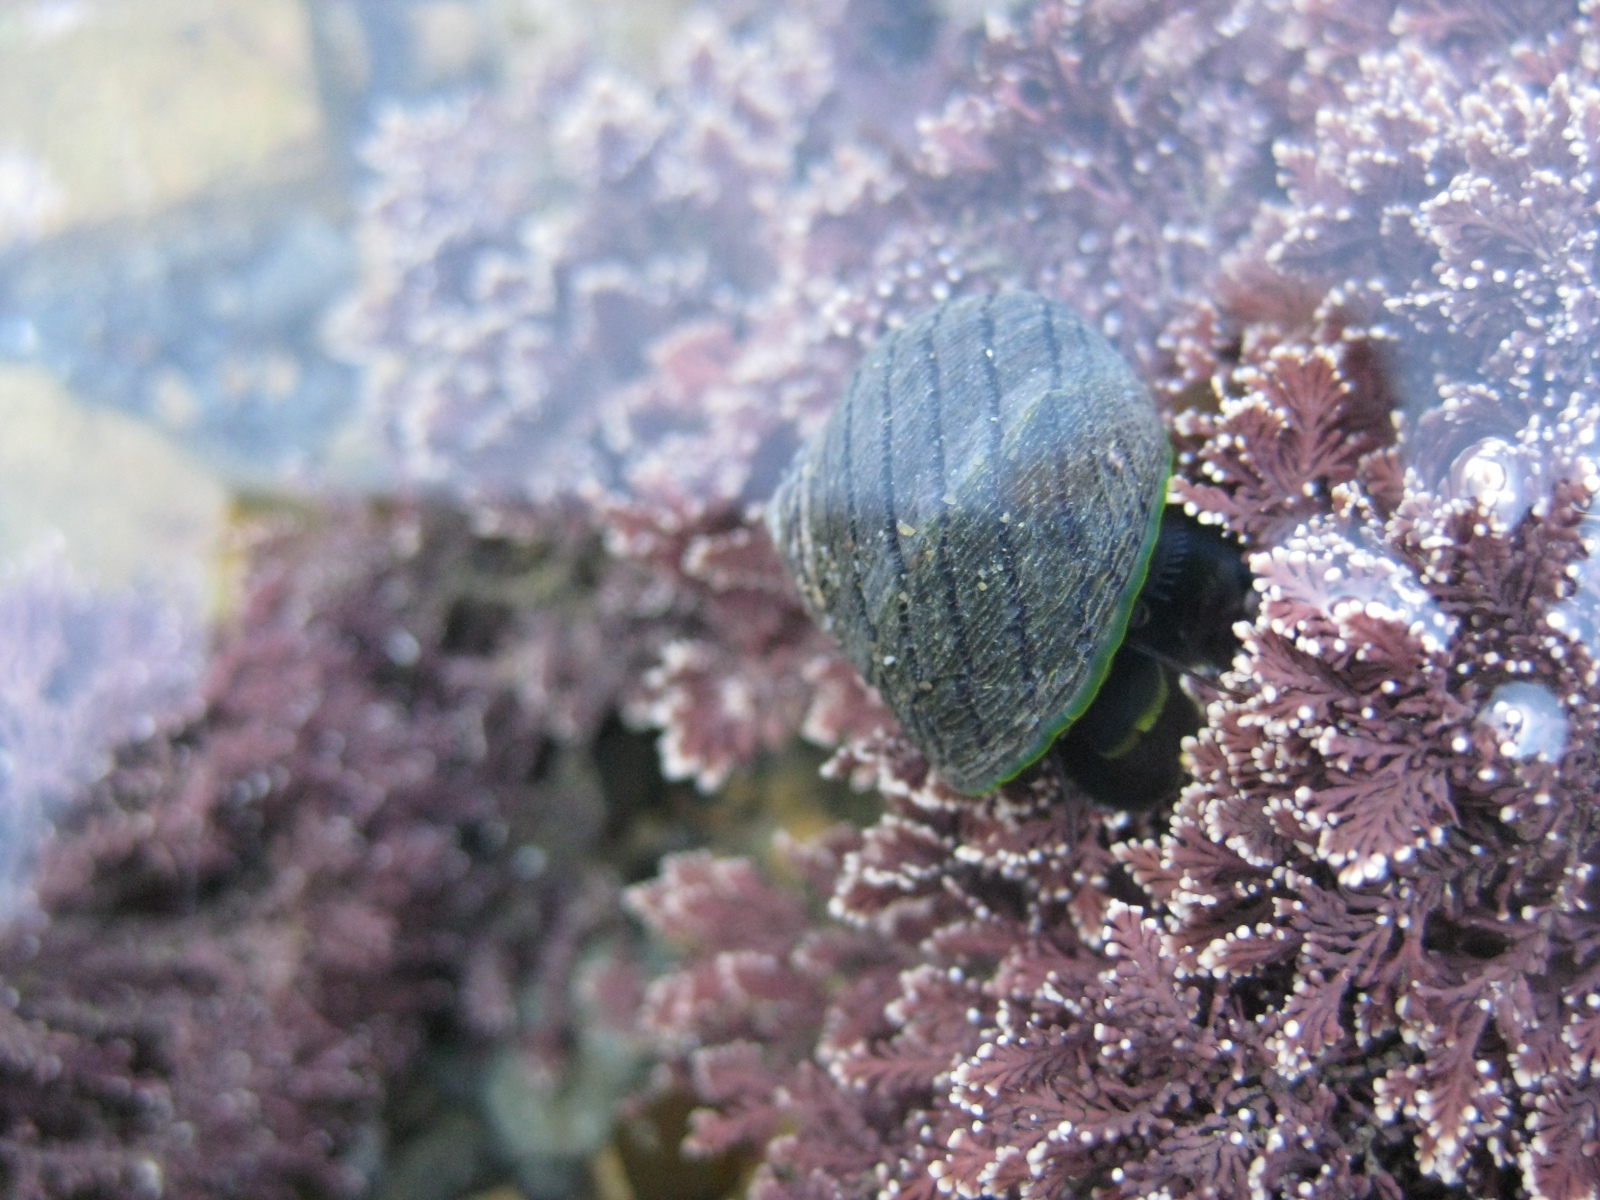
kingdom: Plantae
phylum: Rhodophyta
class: Florideophyceae
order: Corallinales
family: Corallinaceae
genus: Corallina
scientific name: Corallina officinalis
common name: Coral weed
